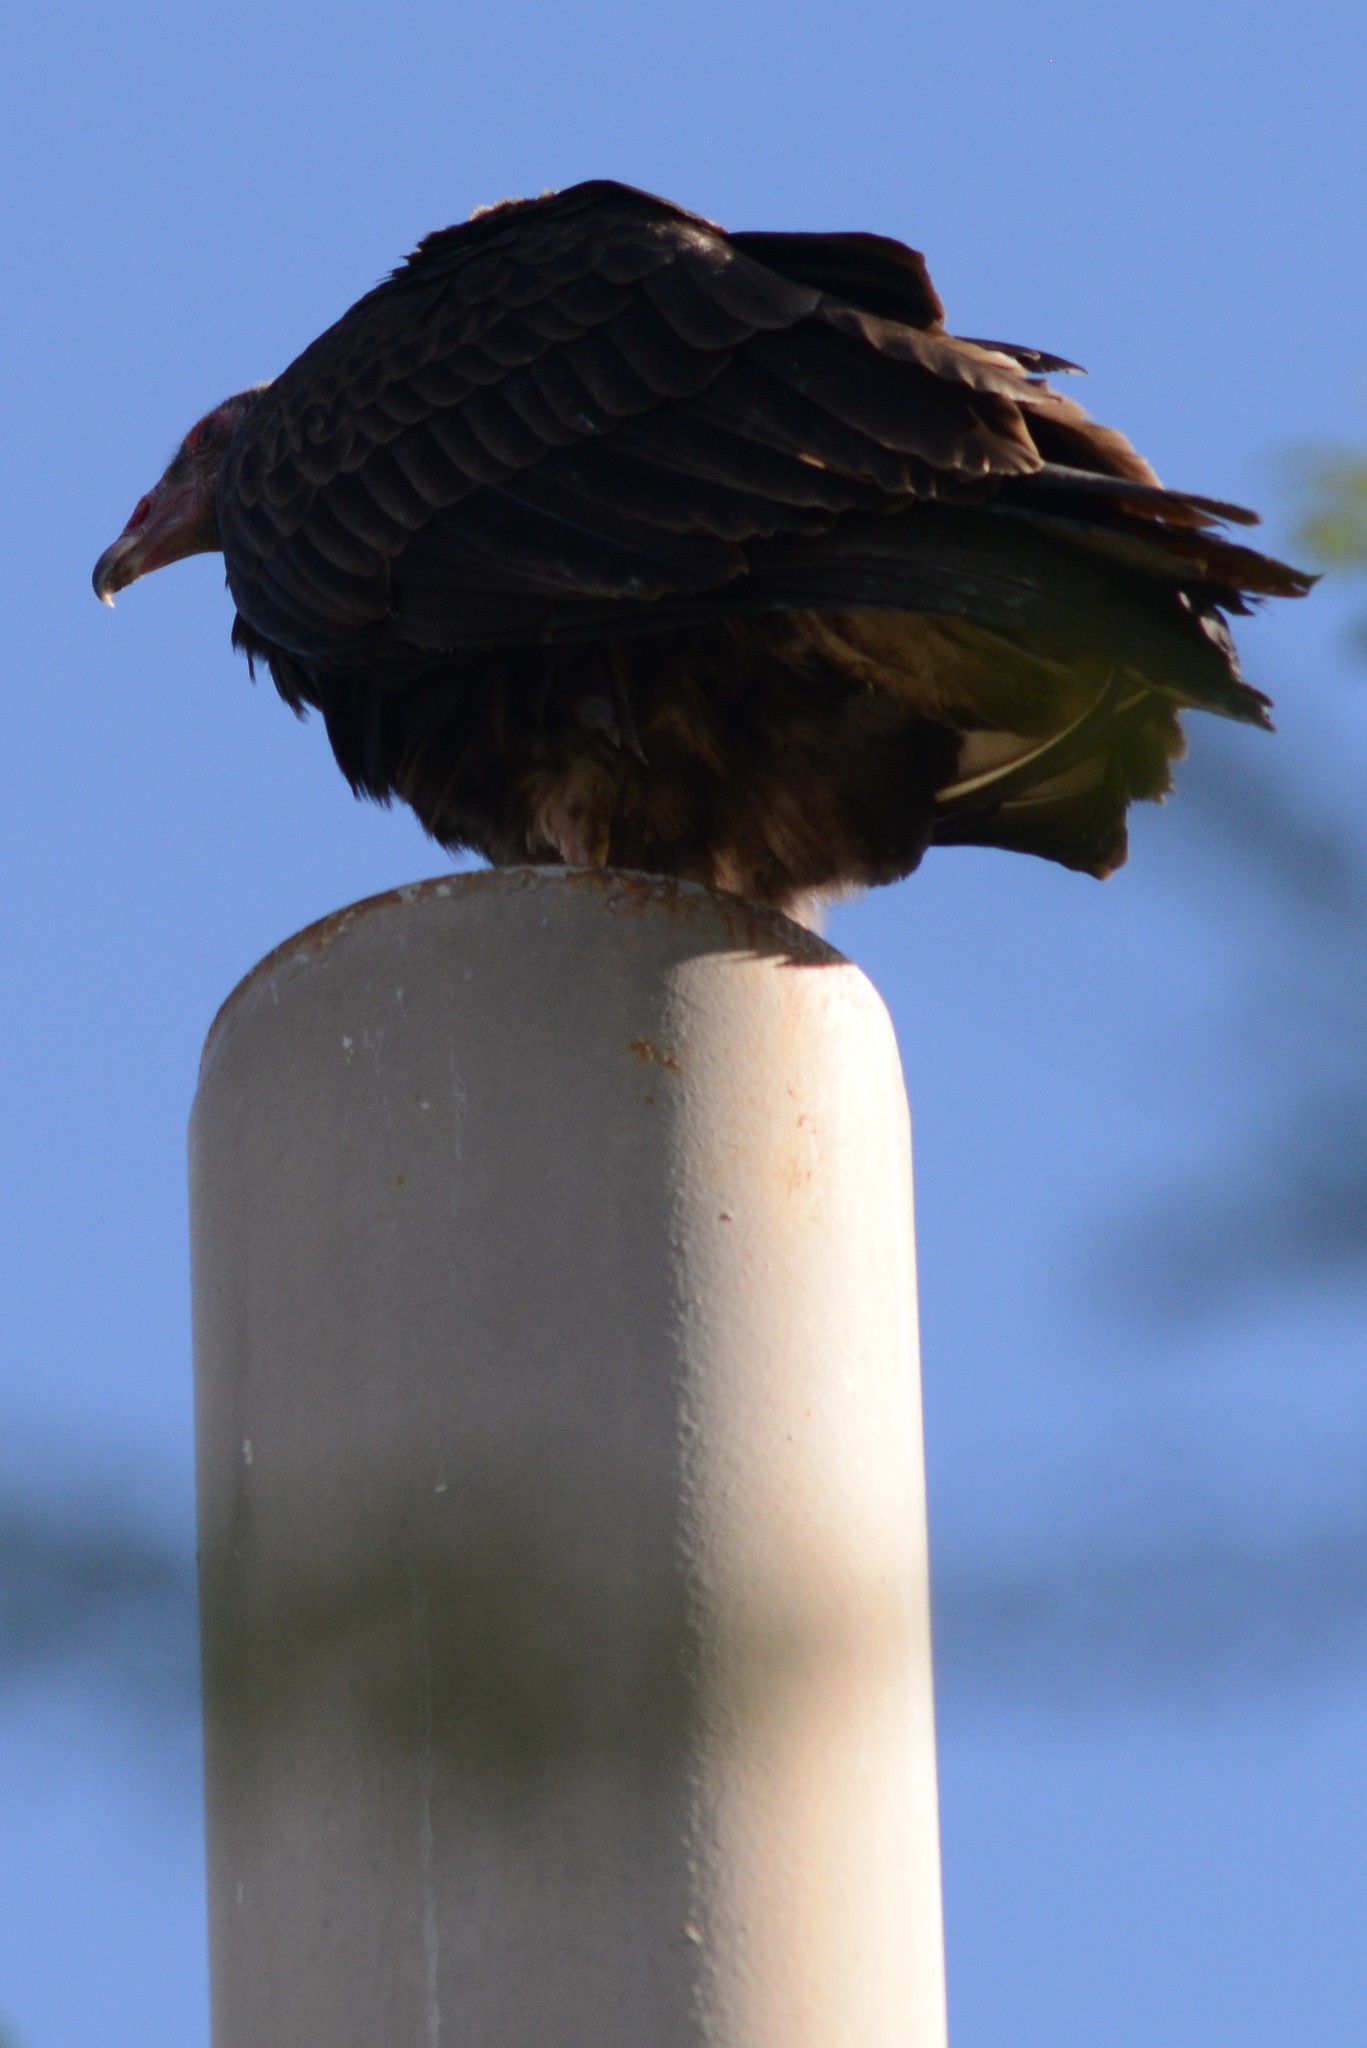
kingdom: Animalia
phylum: Chordata
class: Aves
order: Accipitriformes
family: Cathartidae
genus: Cathartes
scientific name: Cathartes aura
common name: Turkey vulture
